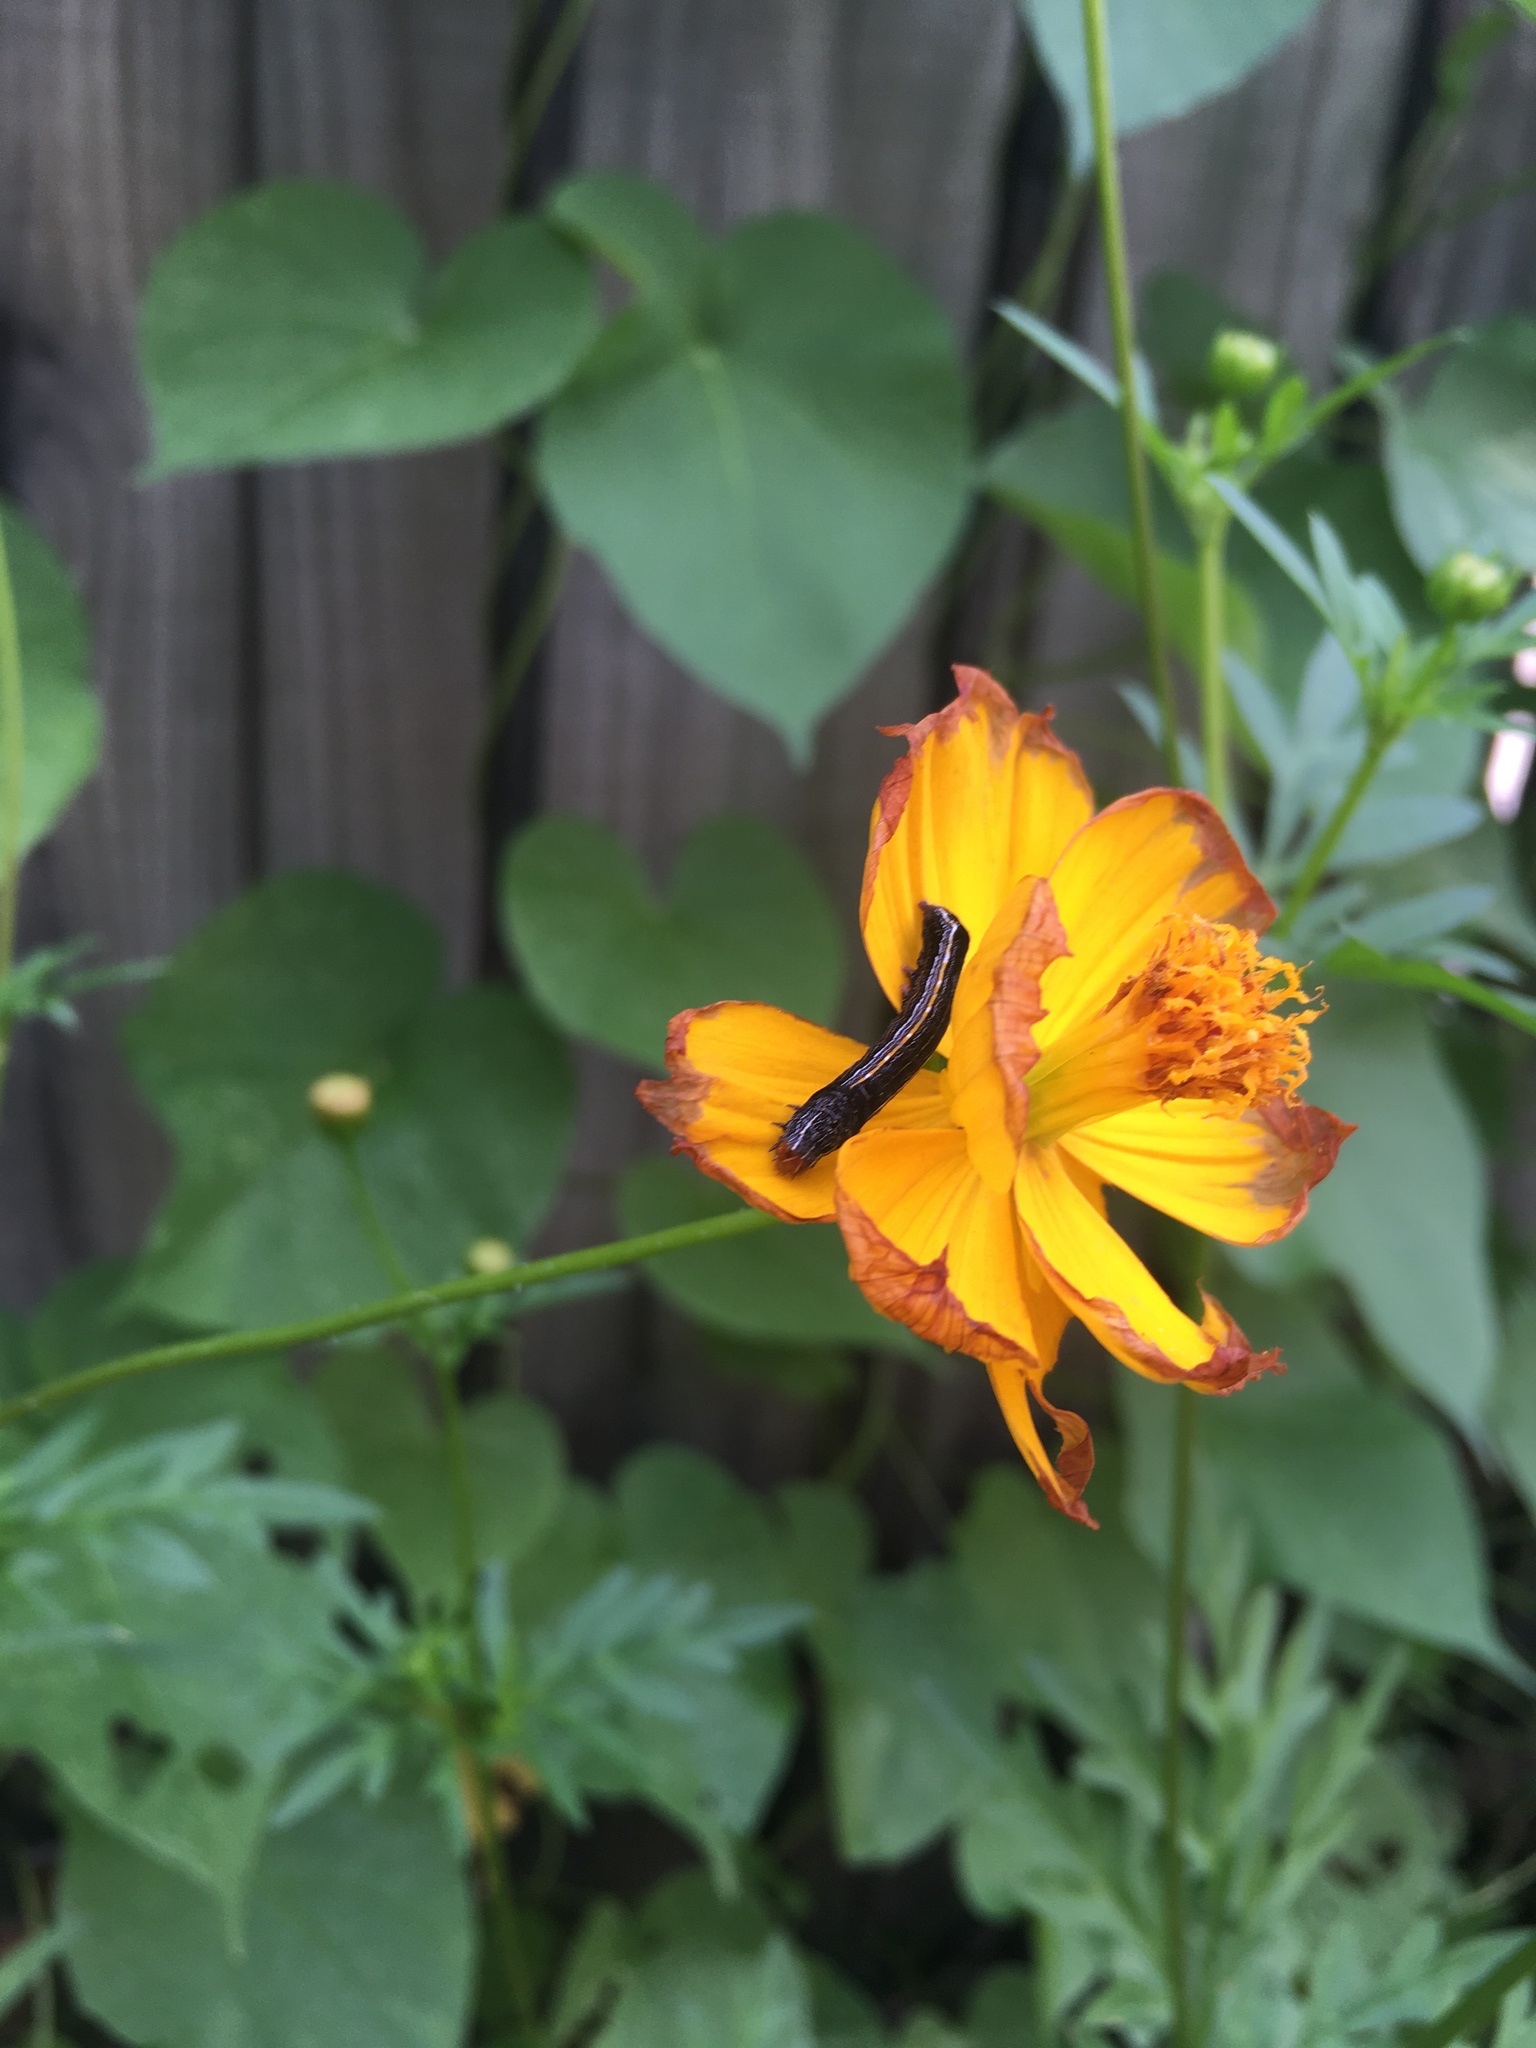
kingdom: Animalia
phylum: Arthropoda
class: Insecta
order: Lepidoptera
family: Noctuidae
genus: Spodoptera
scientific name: Spodoptera ornithogalli
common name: Yellow-striped armyworm
